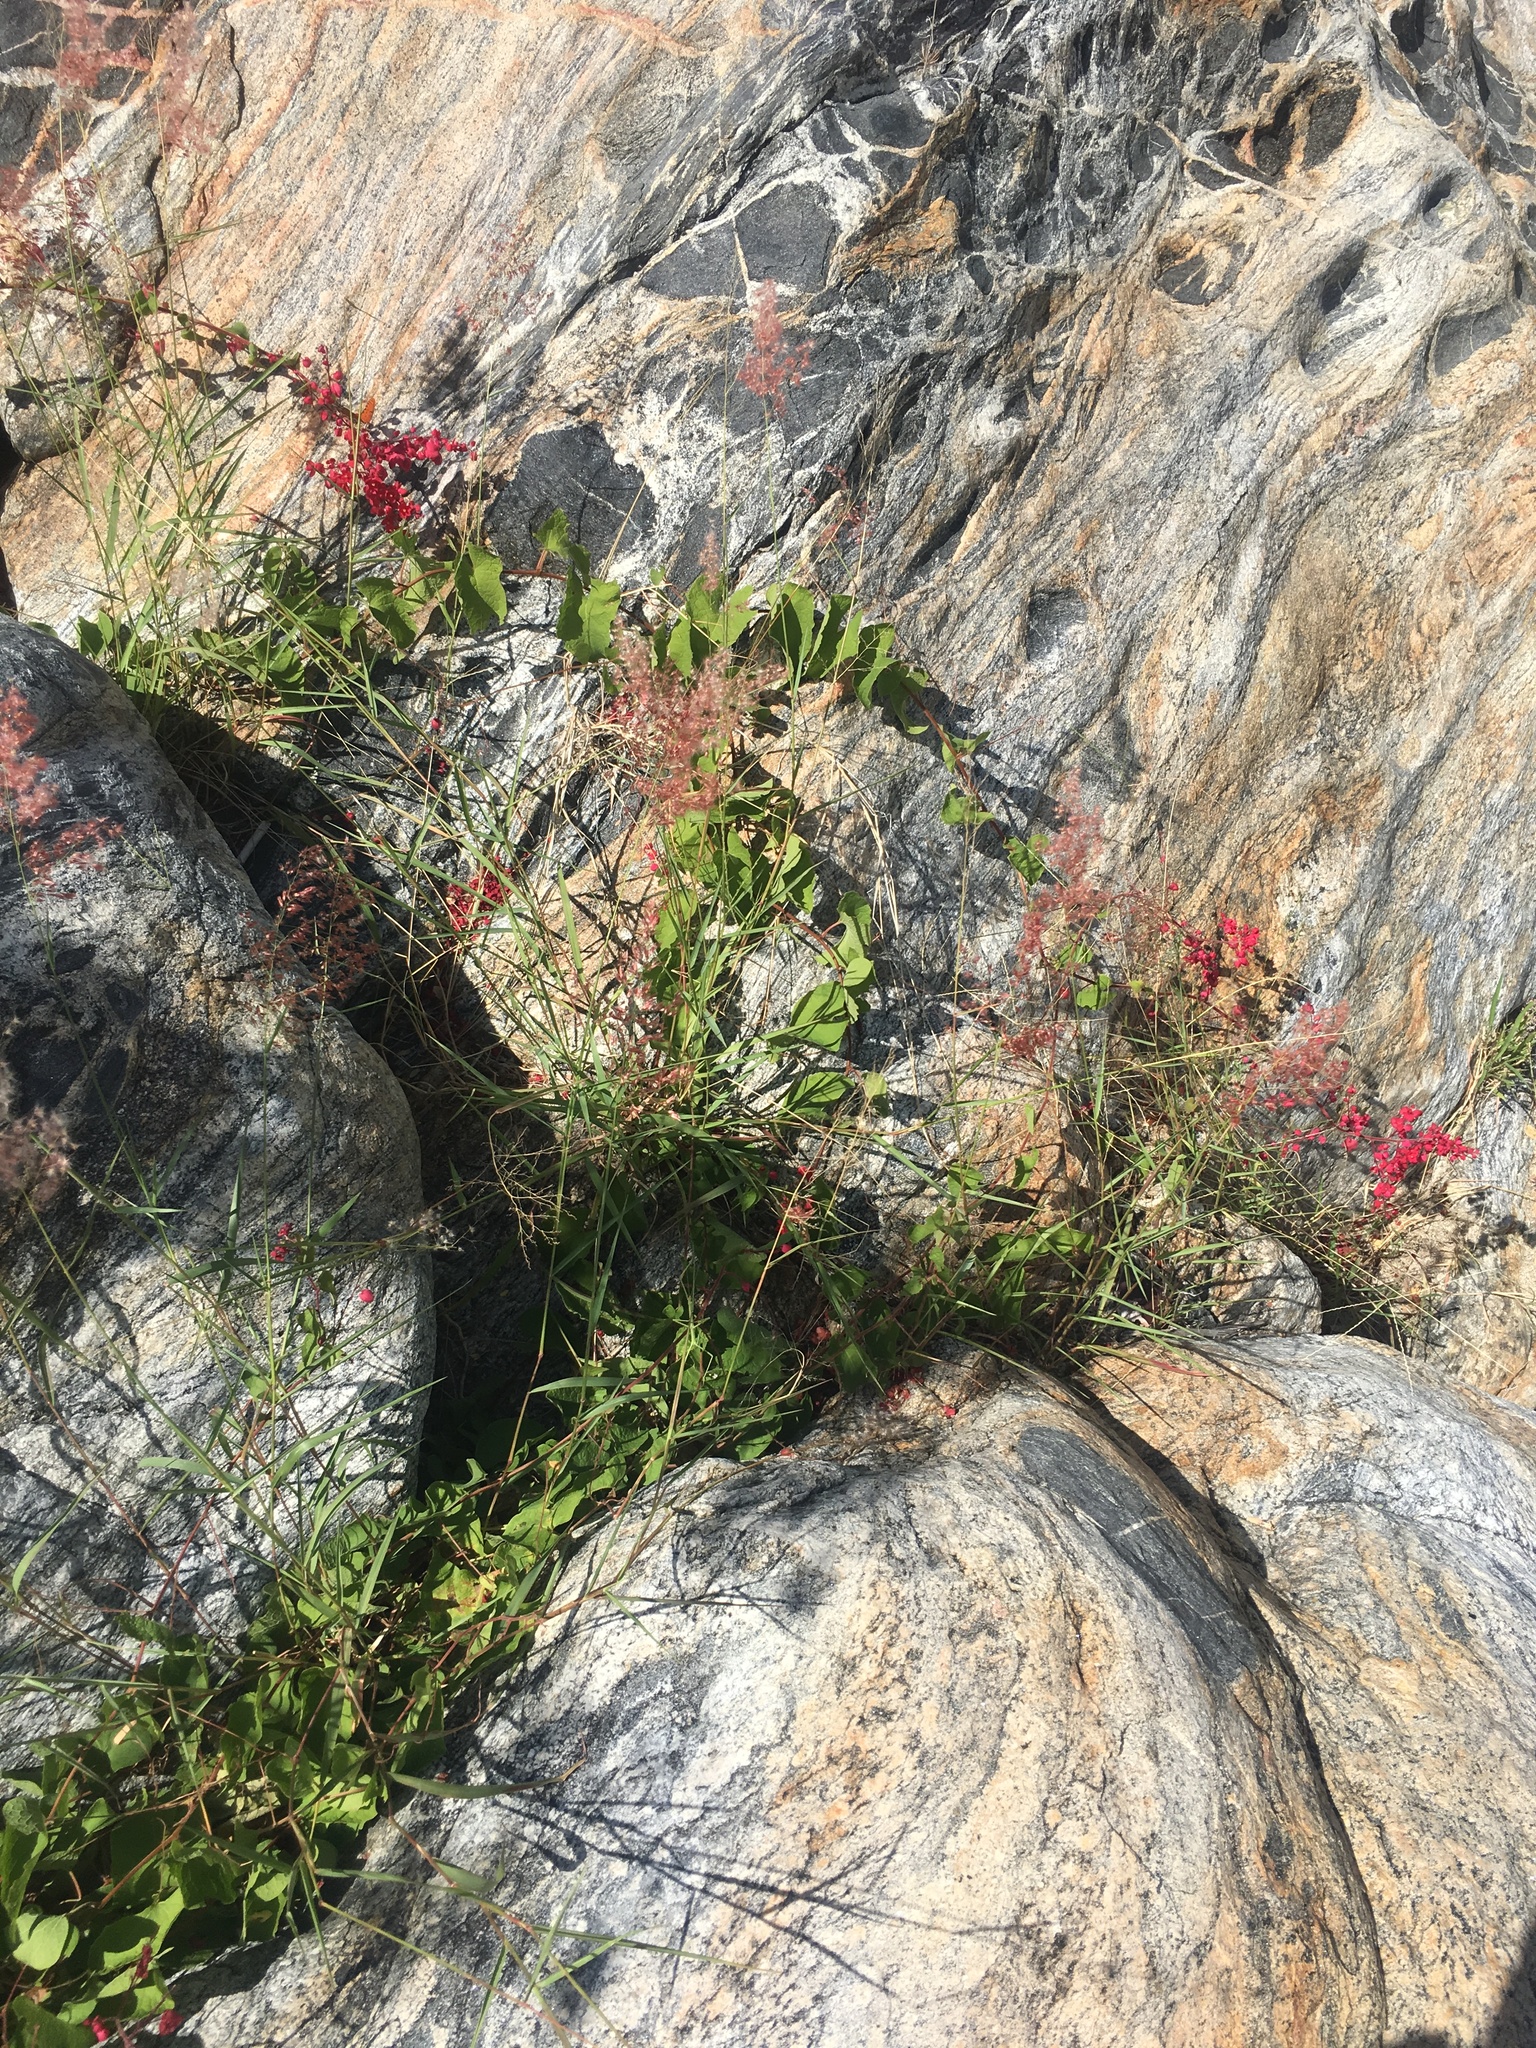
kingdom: Plantae
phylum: Tracheophyta
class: Liliopsida
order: Poales
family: Poaceae
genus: Melinis
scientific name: Melinis repens
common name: Rose natal grass
